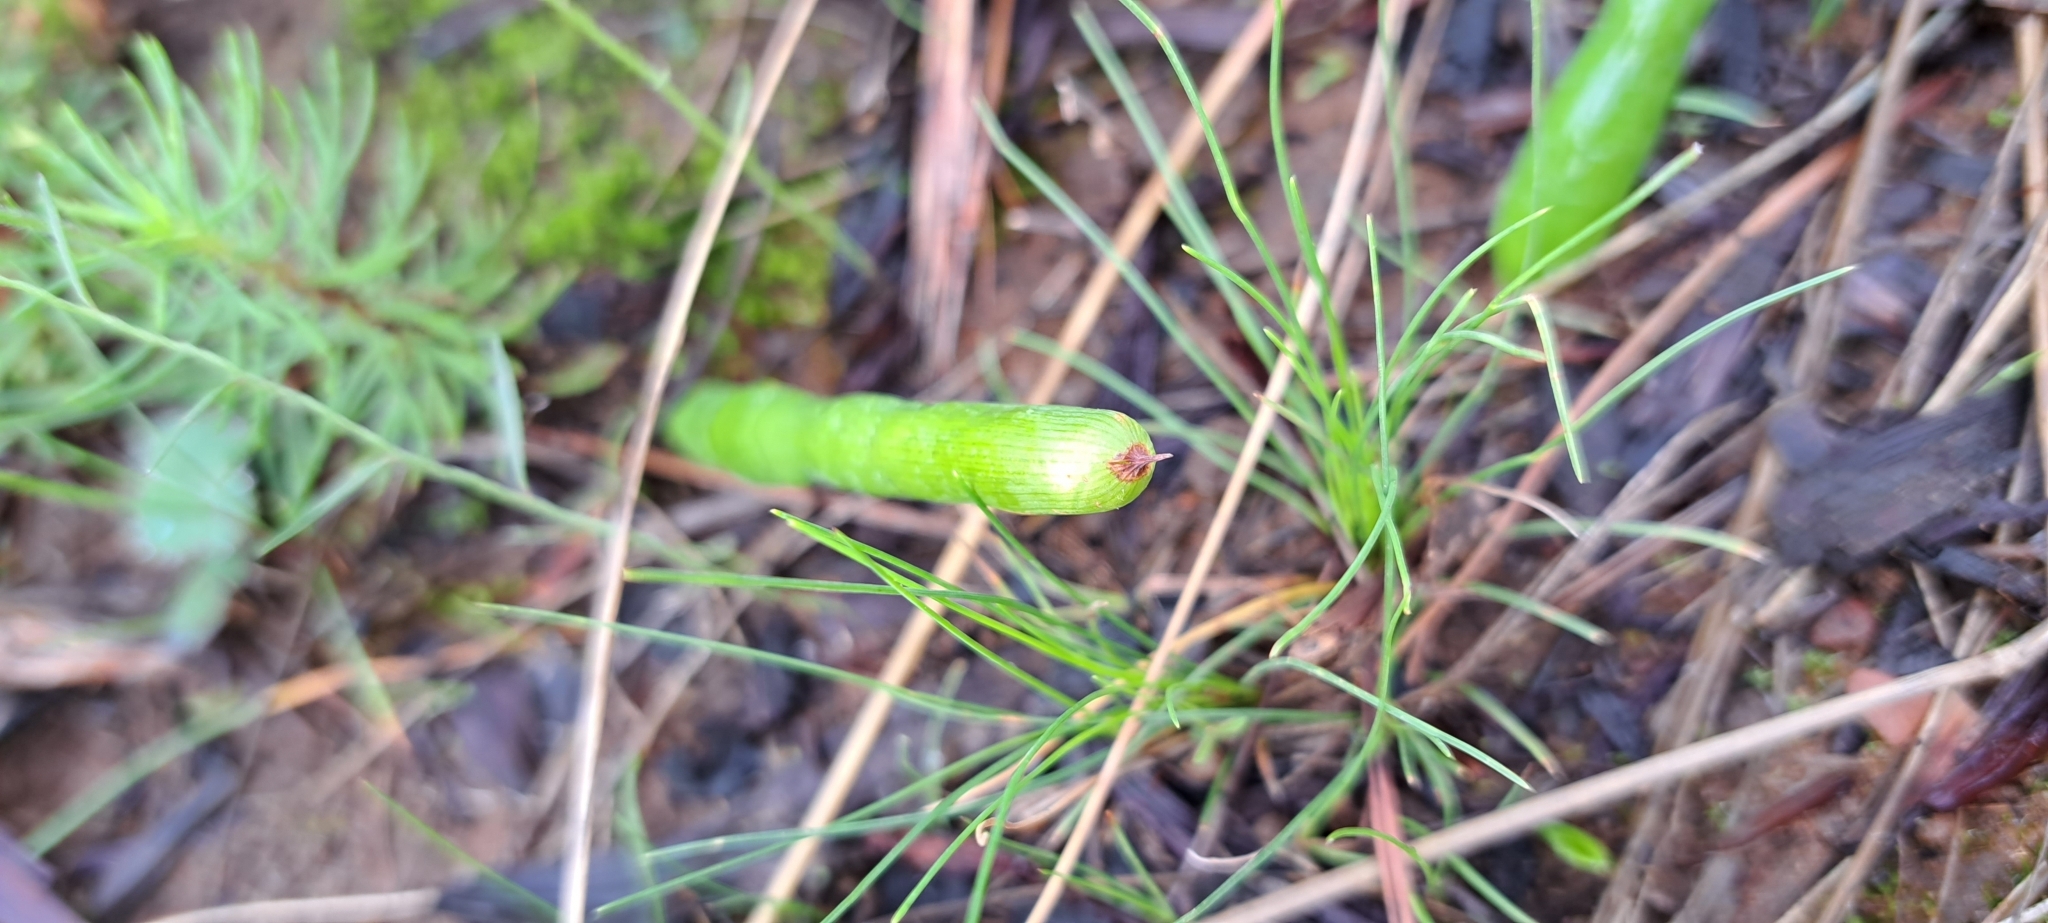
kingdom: Plantae
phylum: Tracheophyta
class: Liliopsida
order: Asparagales
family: Iridaceae
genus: Micranthus
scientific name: Micranthus tubulosus
